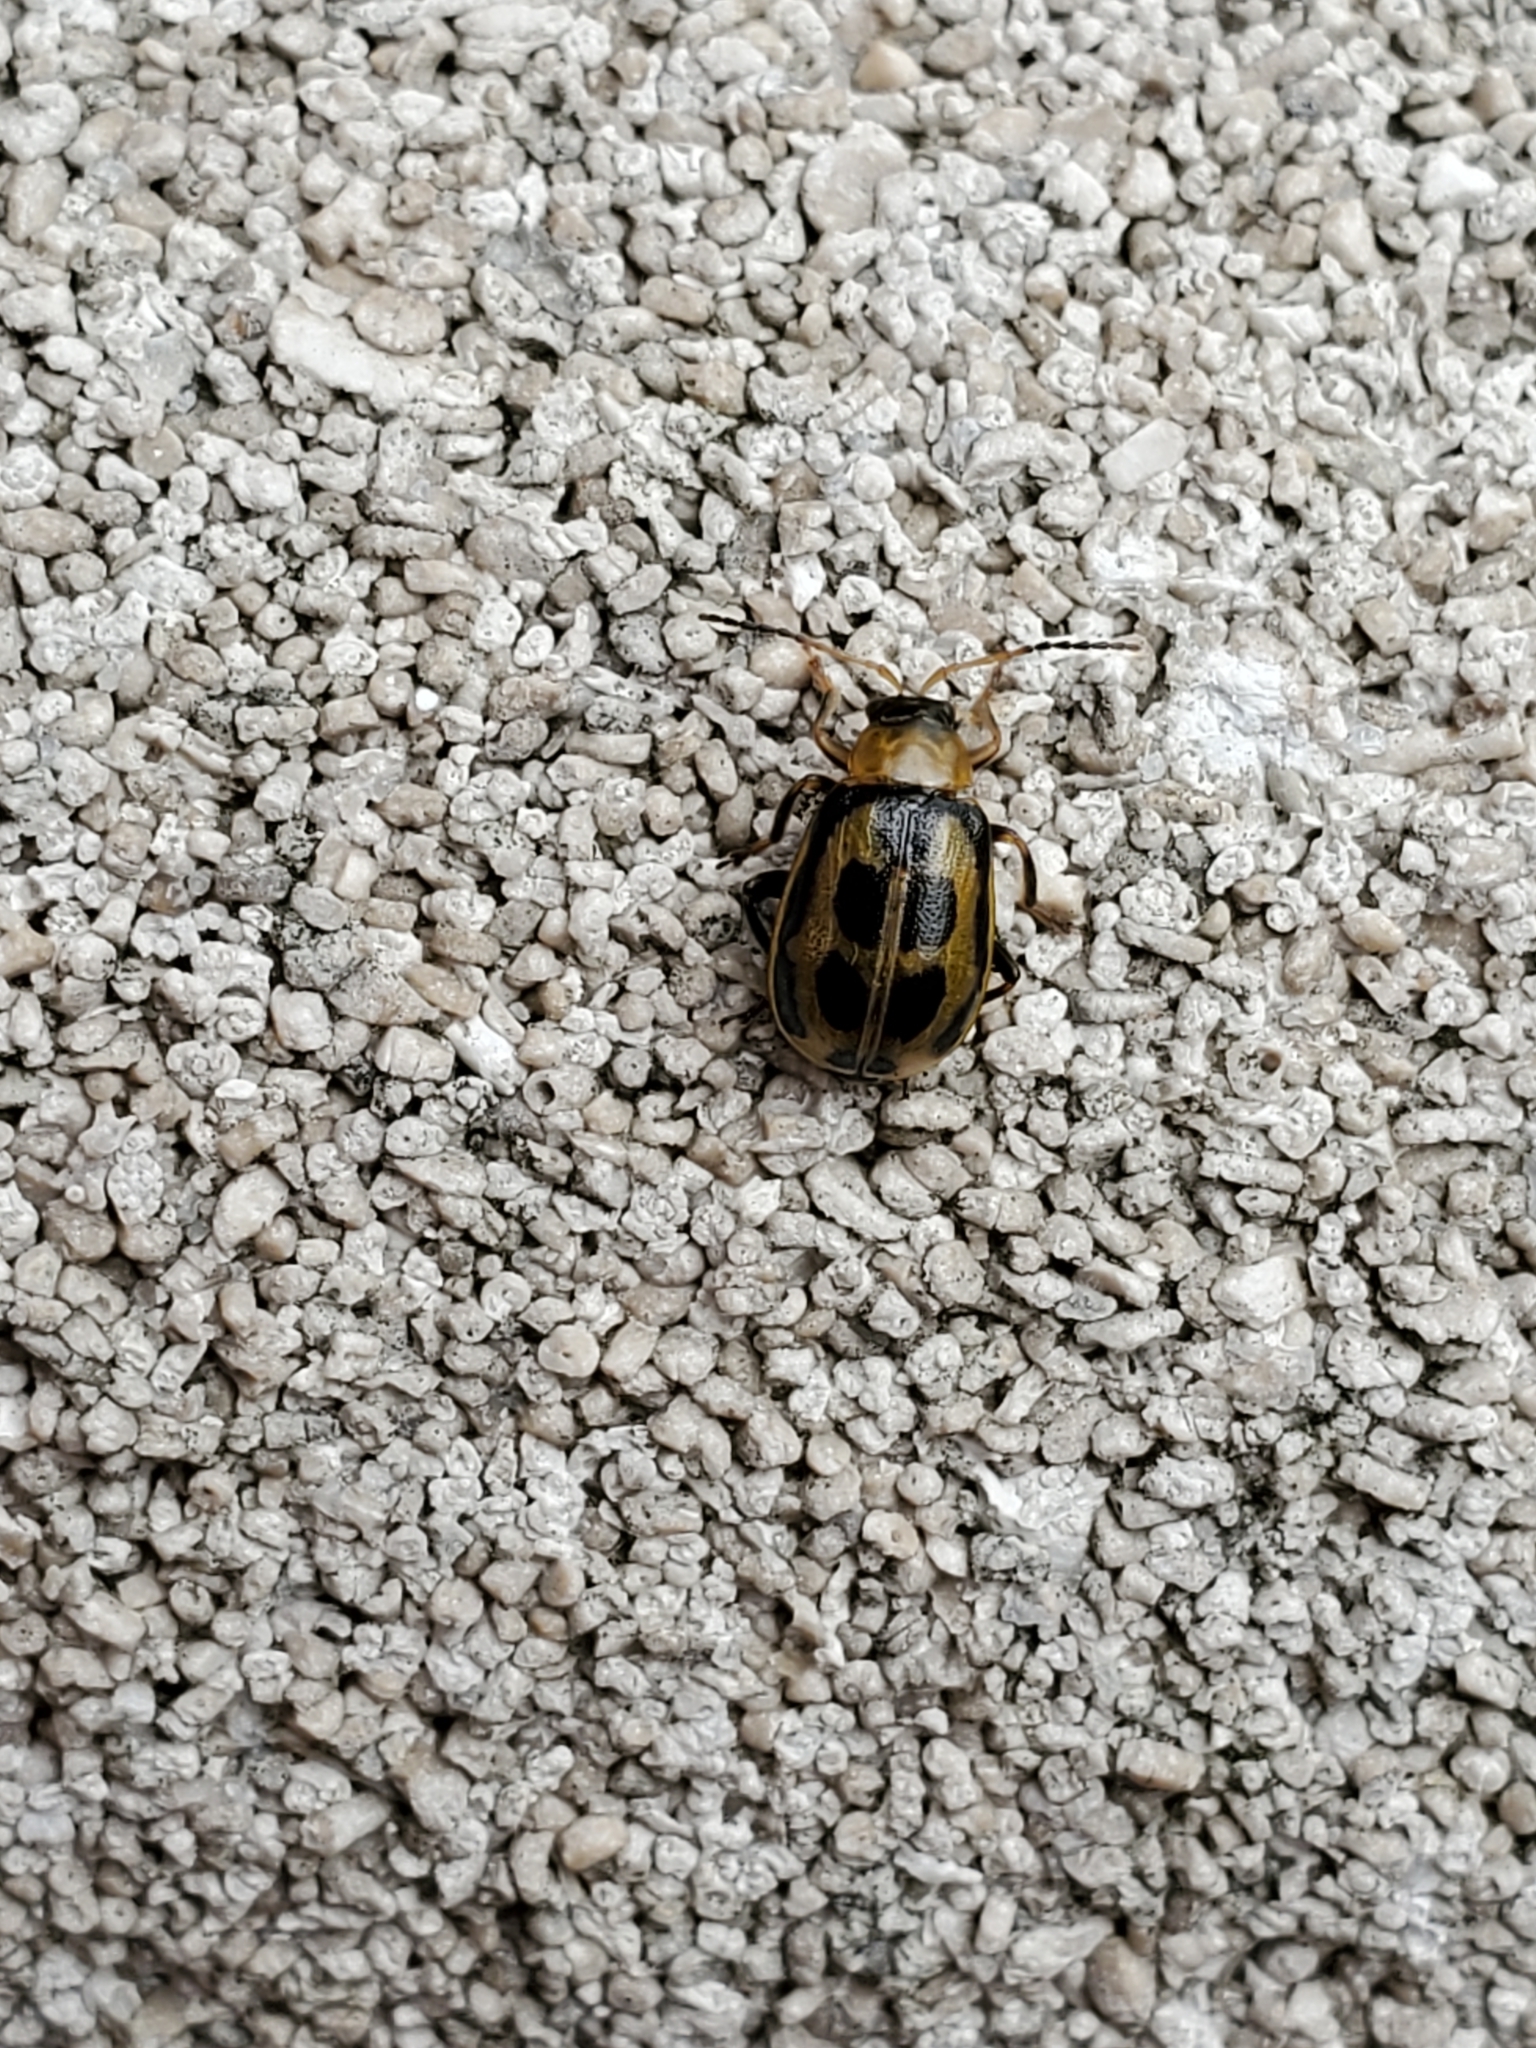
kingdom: Animalia
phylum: Arthropoda
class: Insecta
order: Coleoptera
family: Chrysomelidae
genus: Cerotoma
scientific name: Cerotoma trifurcata
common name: Bean leaf beetle
